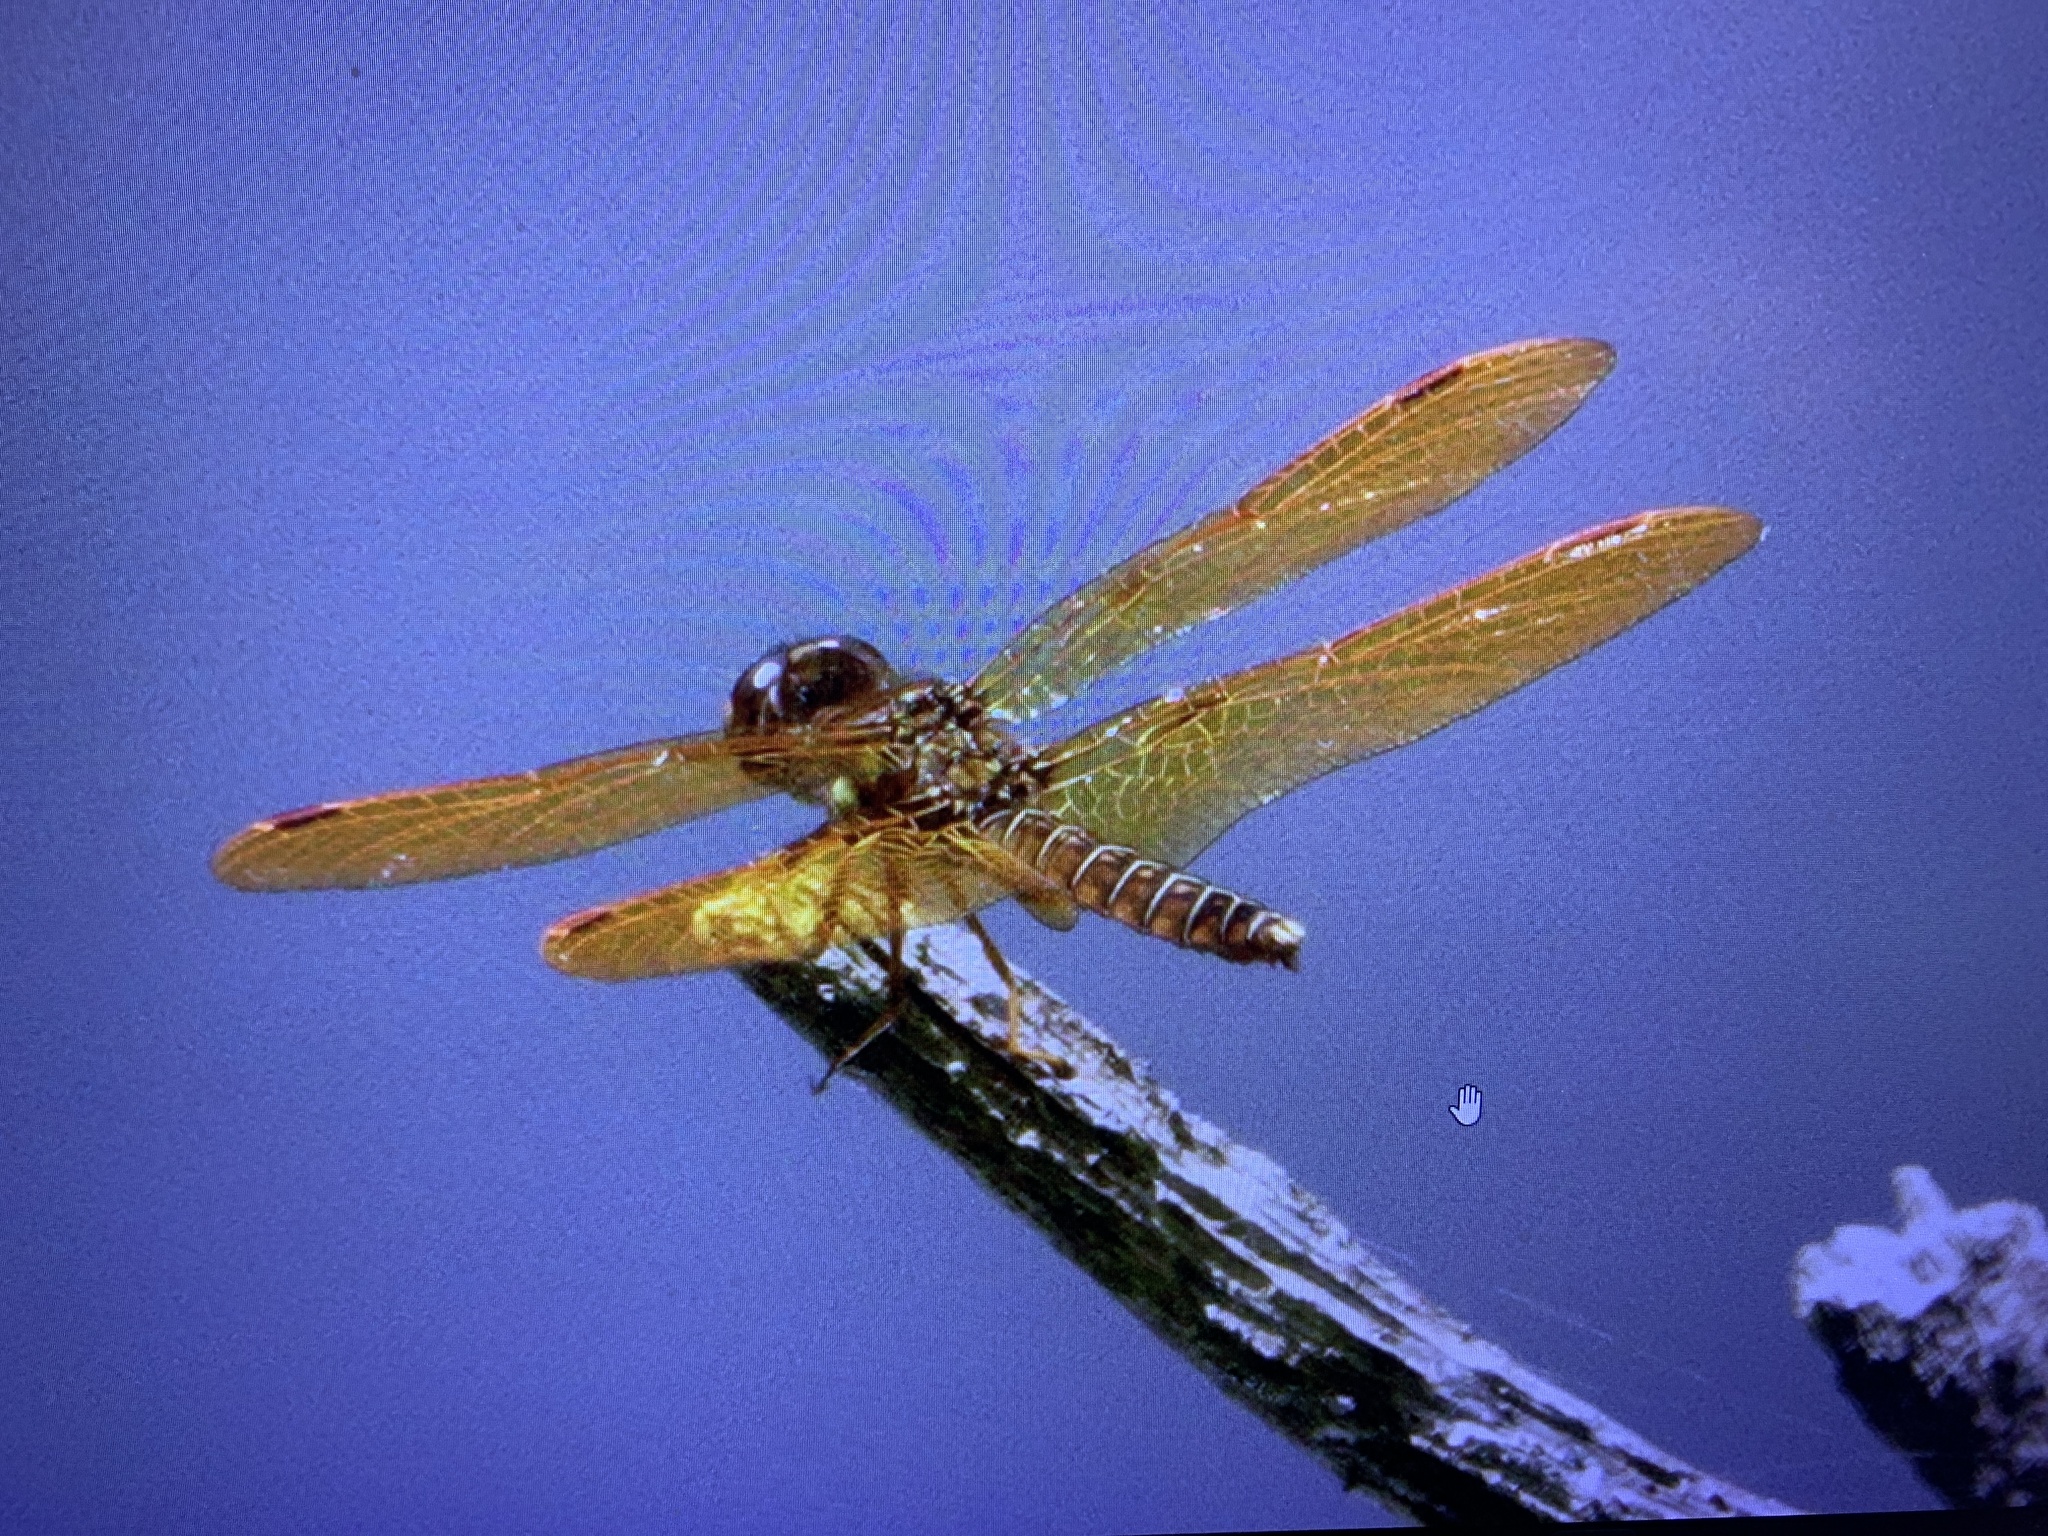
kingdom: Animalia
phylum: Arthropoda
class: Insecta
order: Odonata
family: Libellulidae
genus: Perithemis
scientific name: Perithemis tenera
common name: Eastern amberwing
